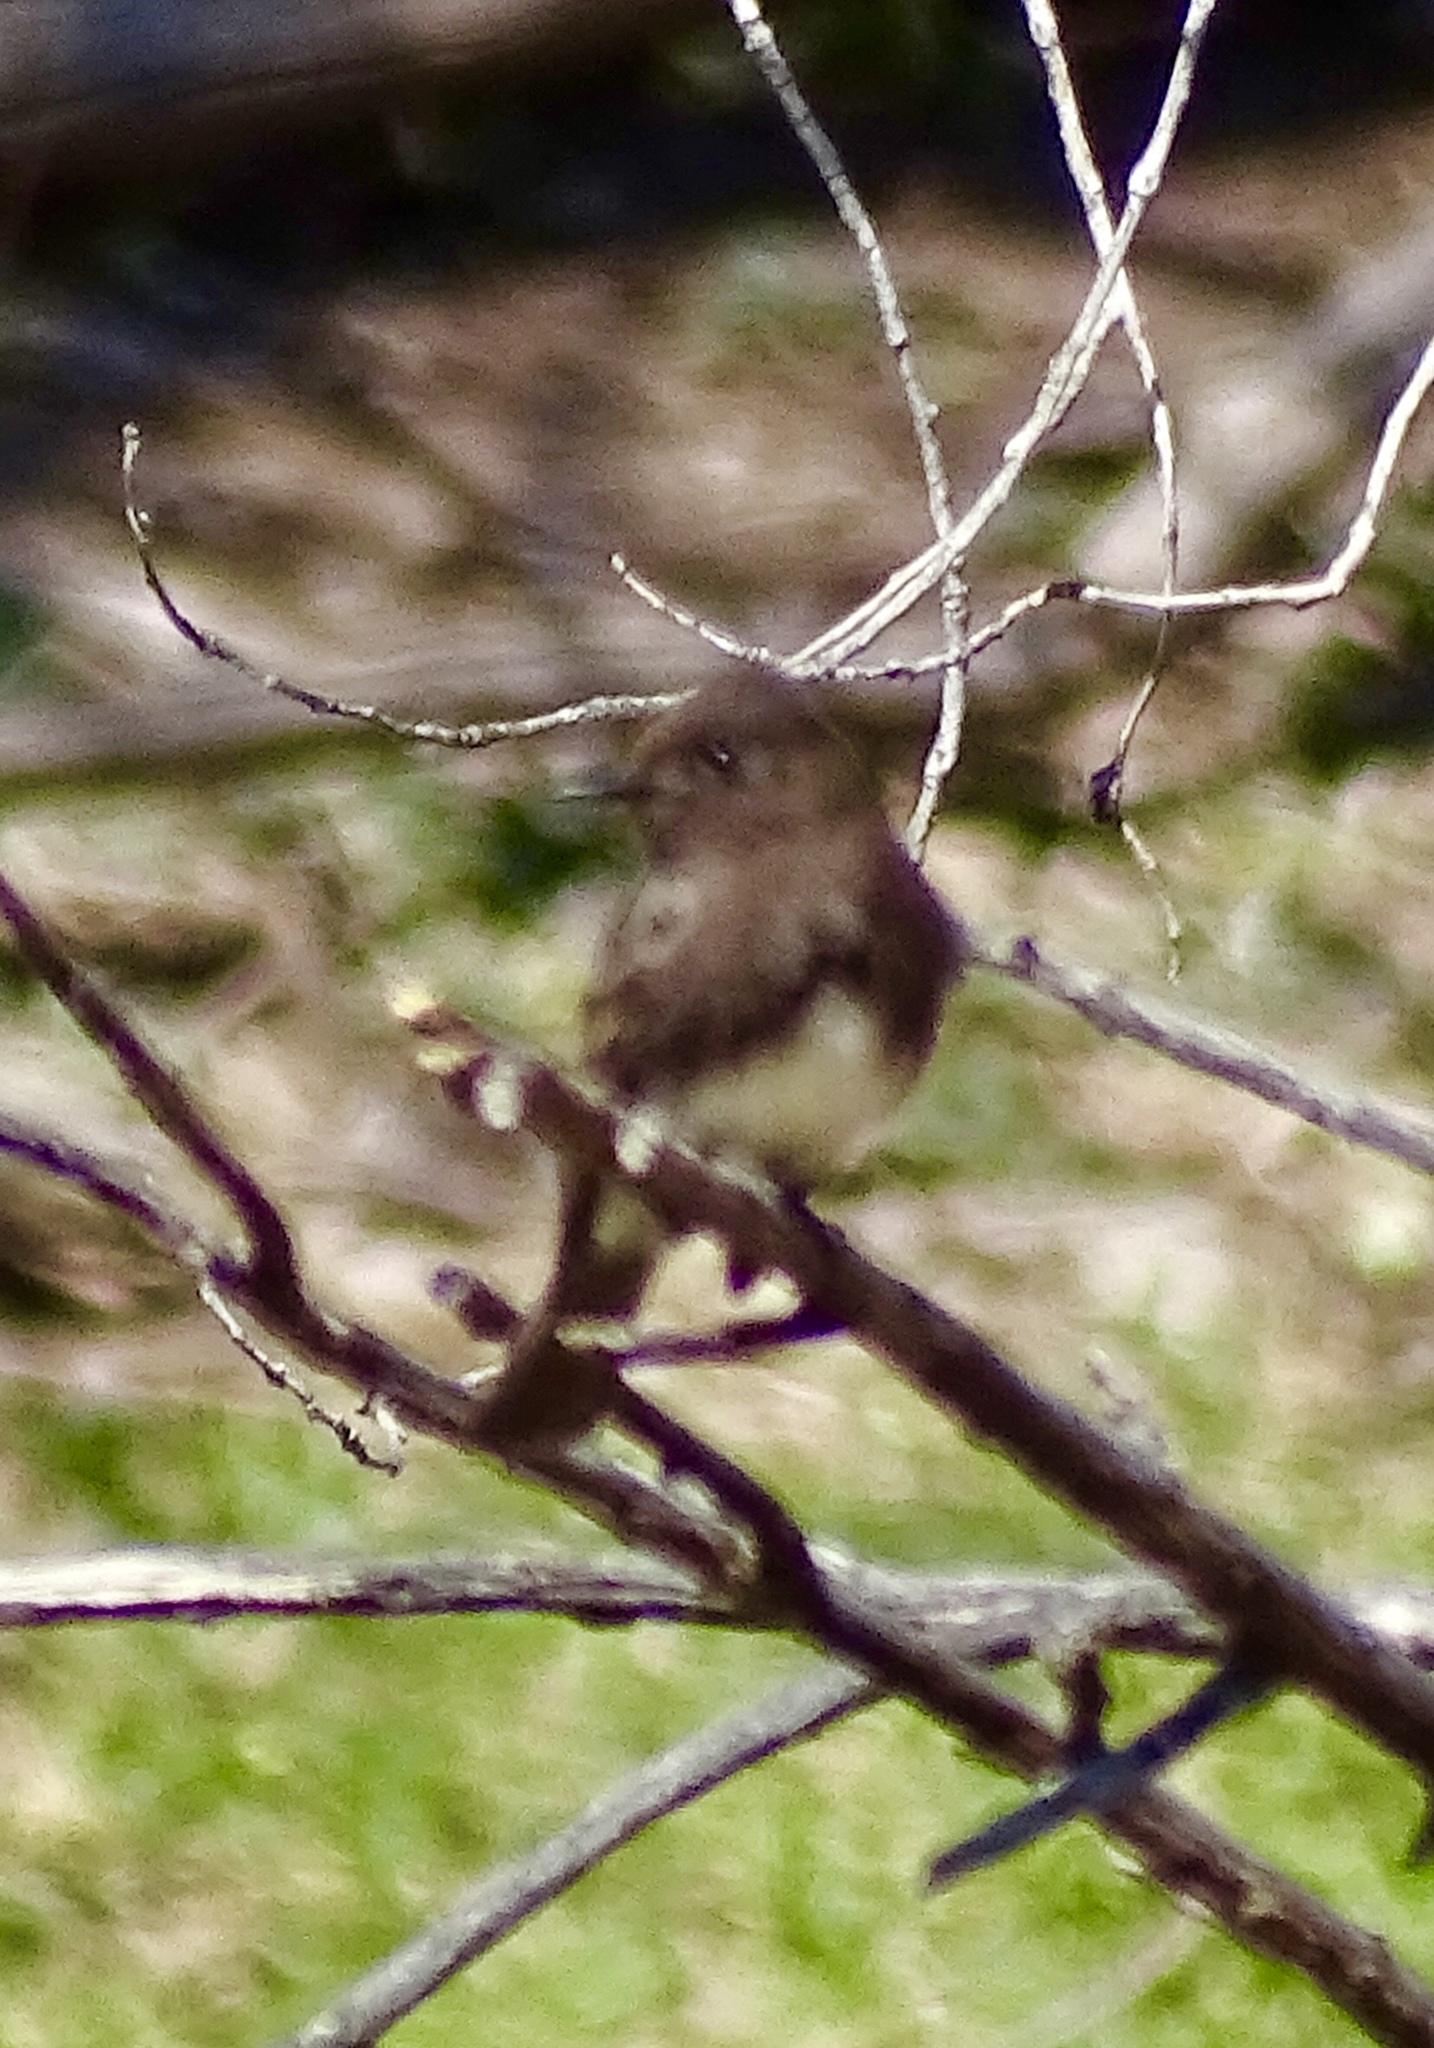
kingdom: Animalia
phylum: Chordata
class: Aves
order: Passeriformes
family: Tyrannidae
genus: Sayornis
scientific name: Sayornis nigricans
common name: Black phoebe
